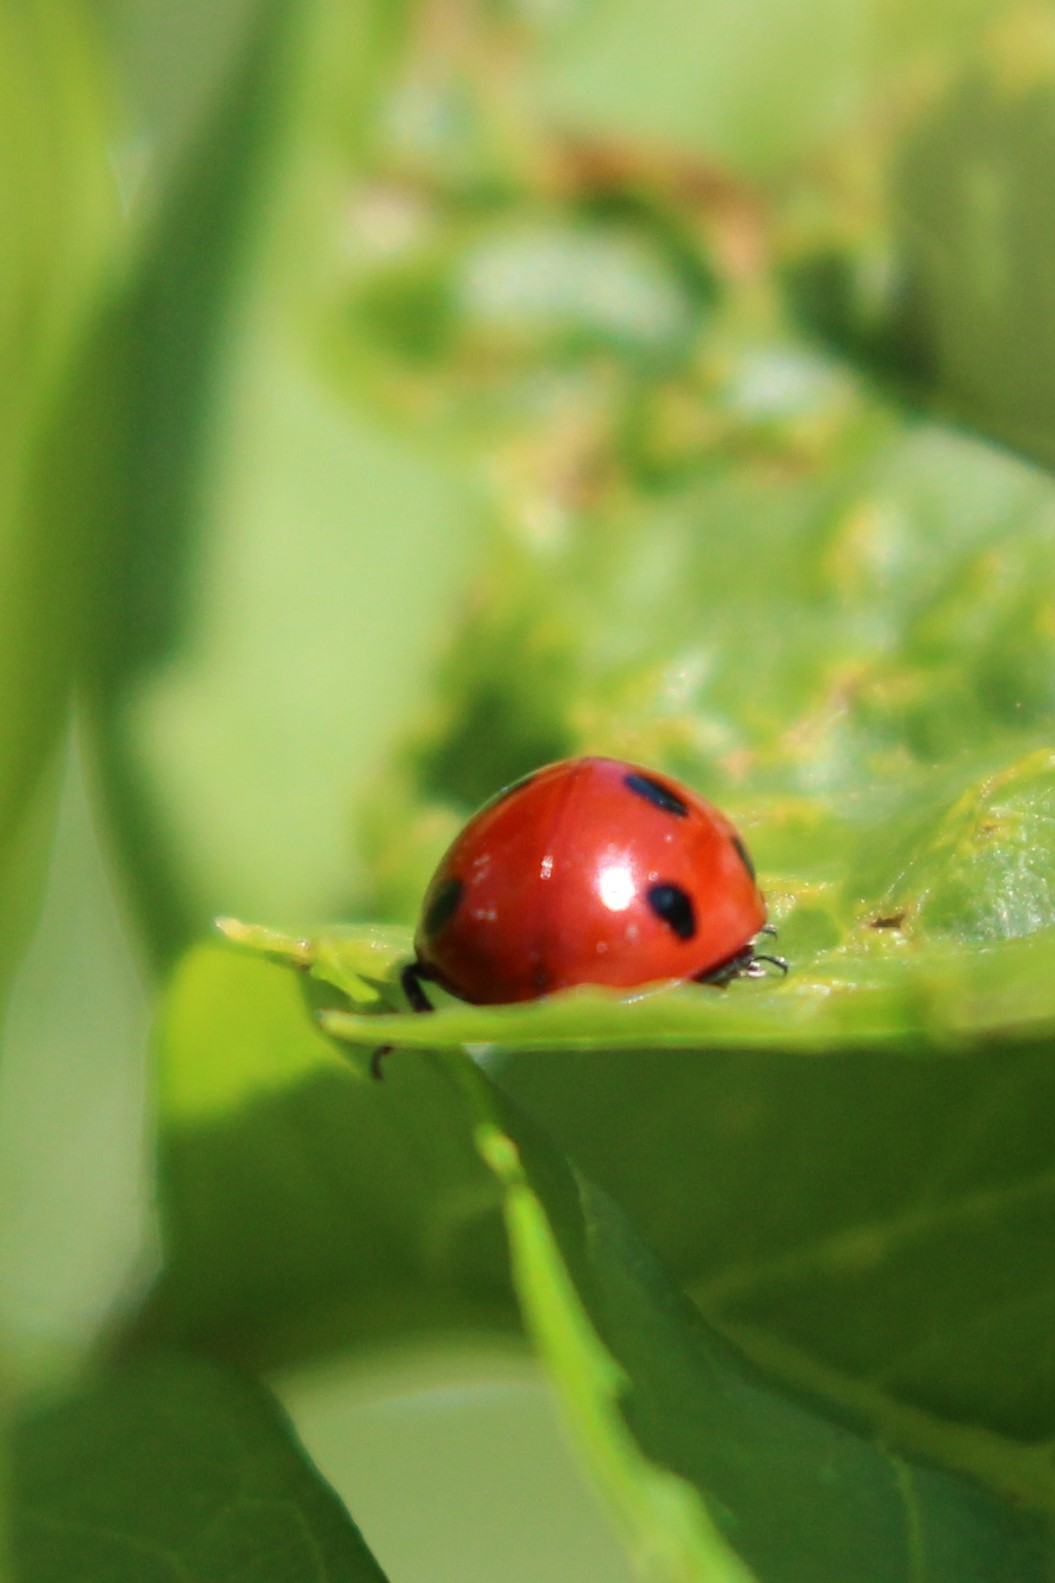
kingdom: Animalia
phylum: Arthropoda
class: Insecta
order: Coleoptera
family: Coccinellidae
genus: Coccinella
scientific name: Coccinella septempunctata
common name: Sevenspotted lady beetle
